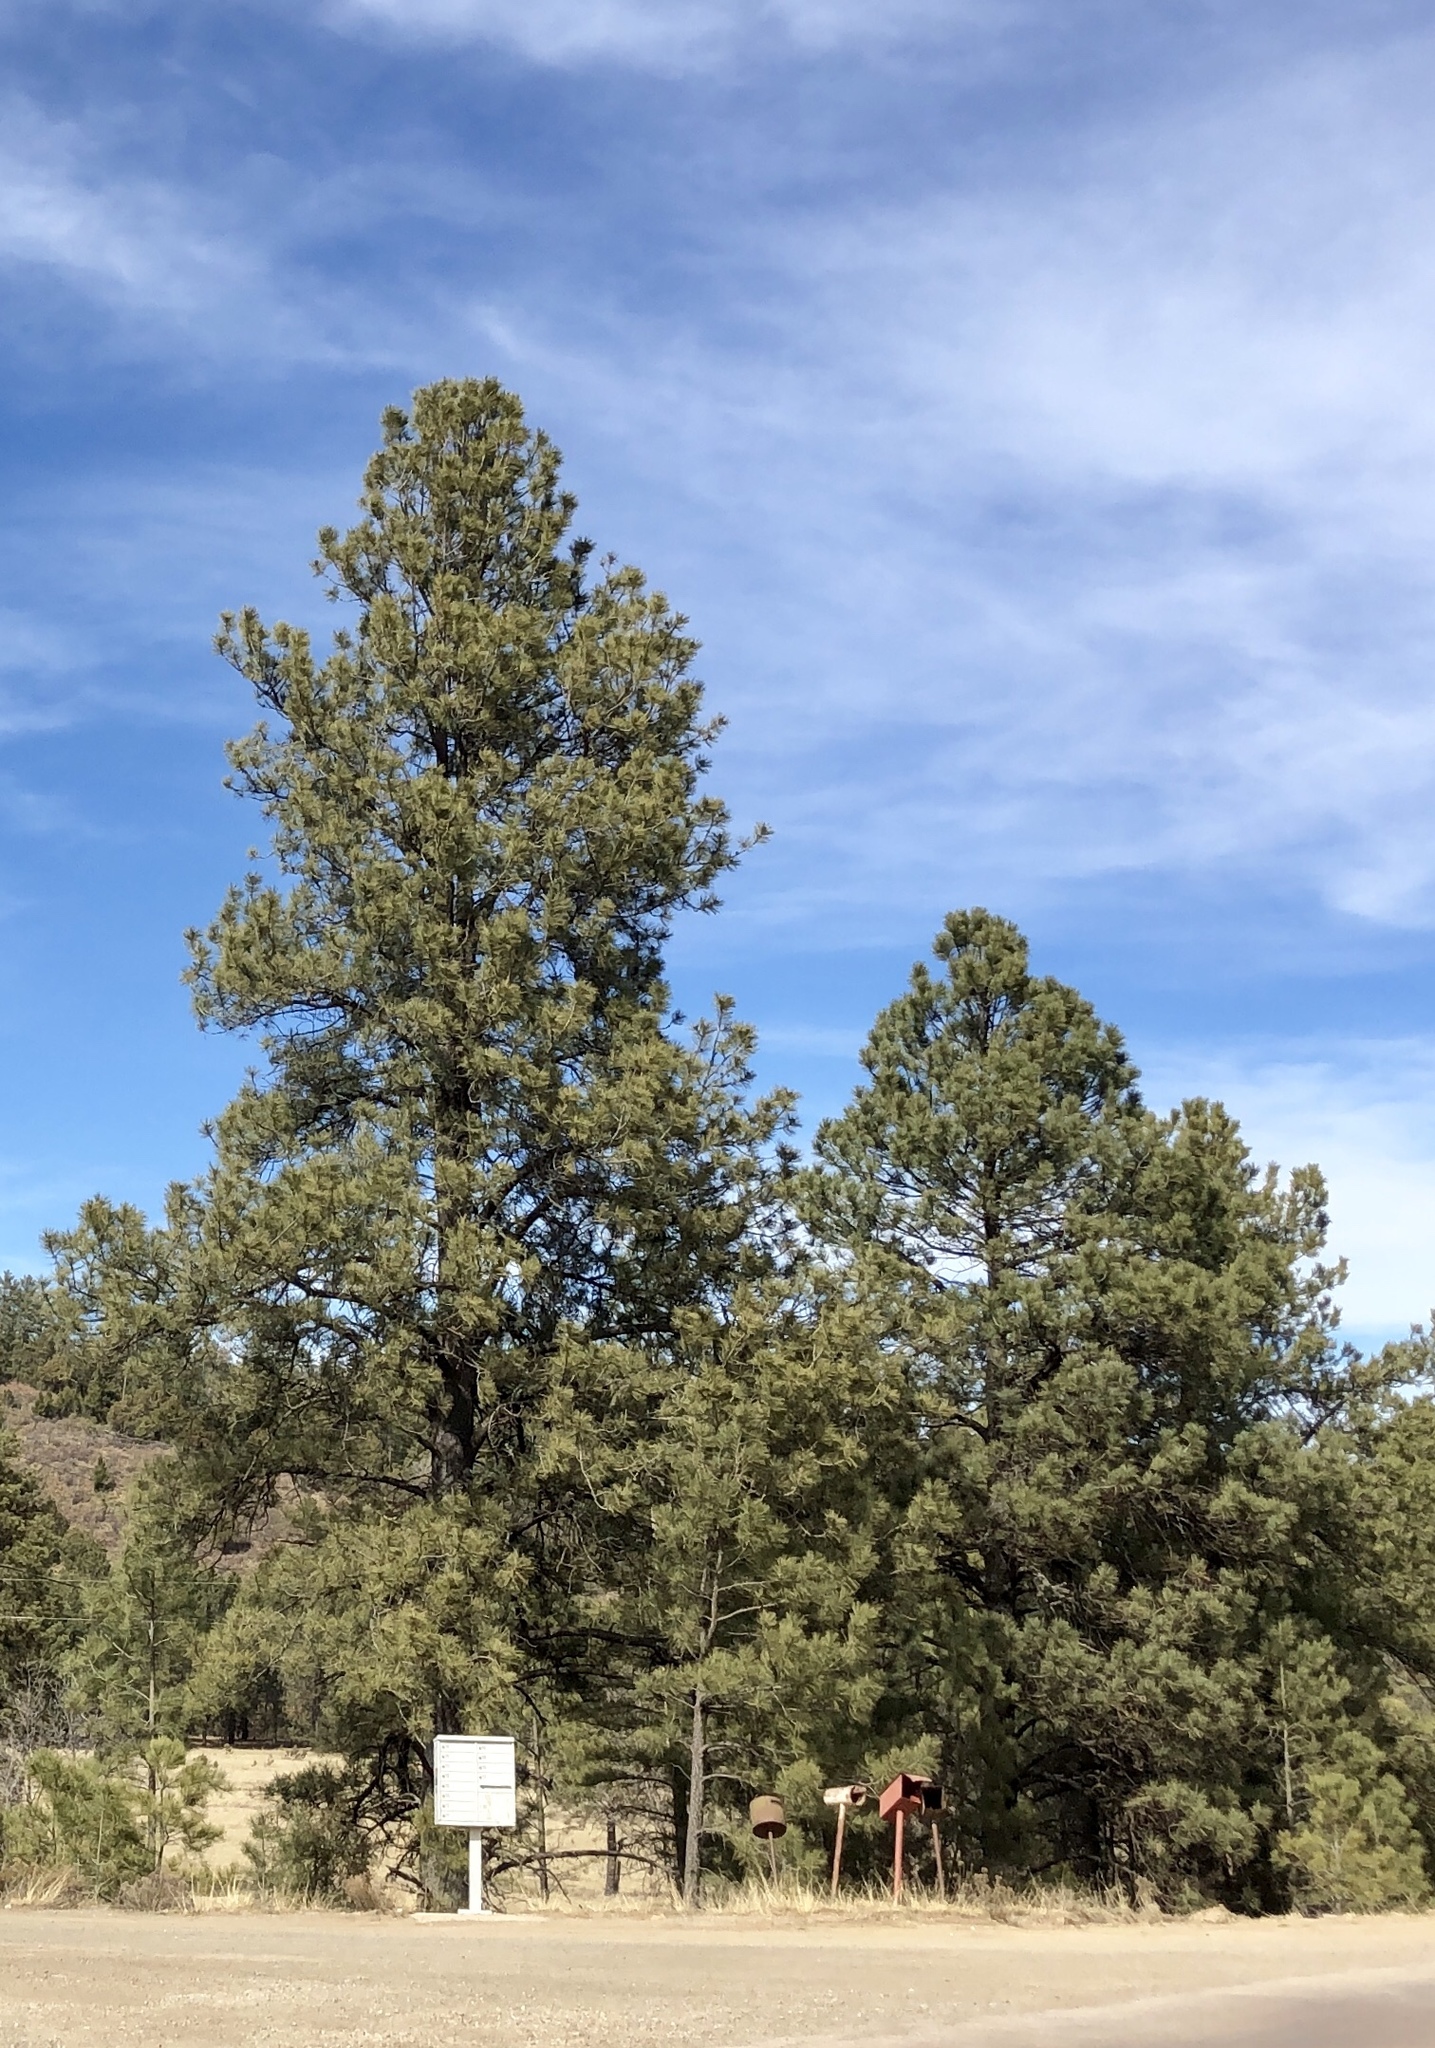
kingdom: Plantae
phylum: Tracheophyta
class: Pinopsida
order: Pinales
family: Pinaceae
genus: Pinus
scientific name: Pinus ponderosa
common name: Western yellow-pine
